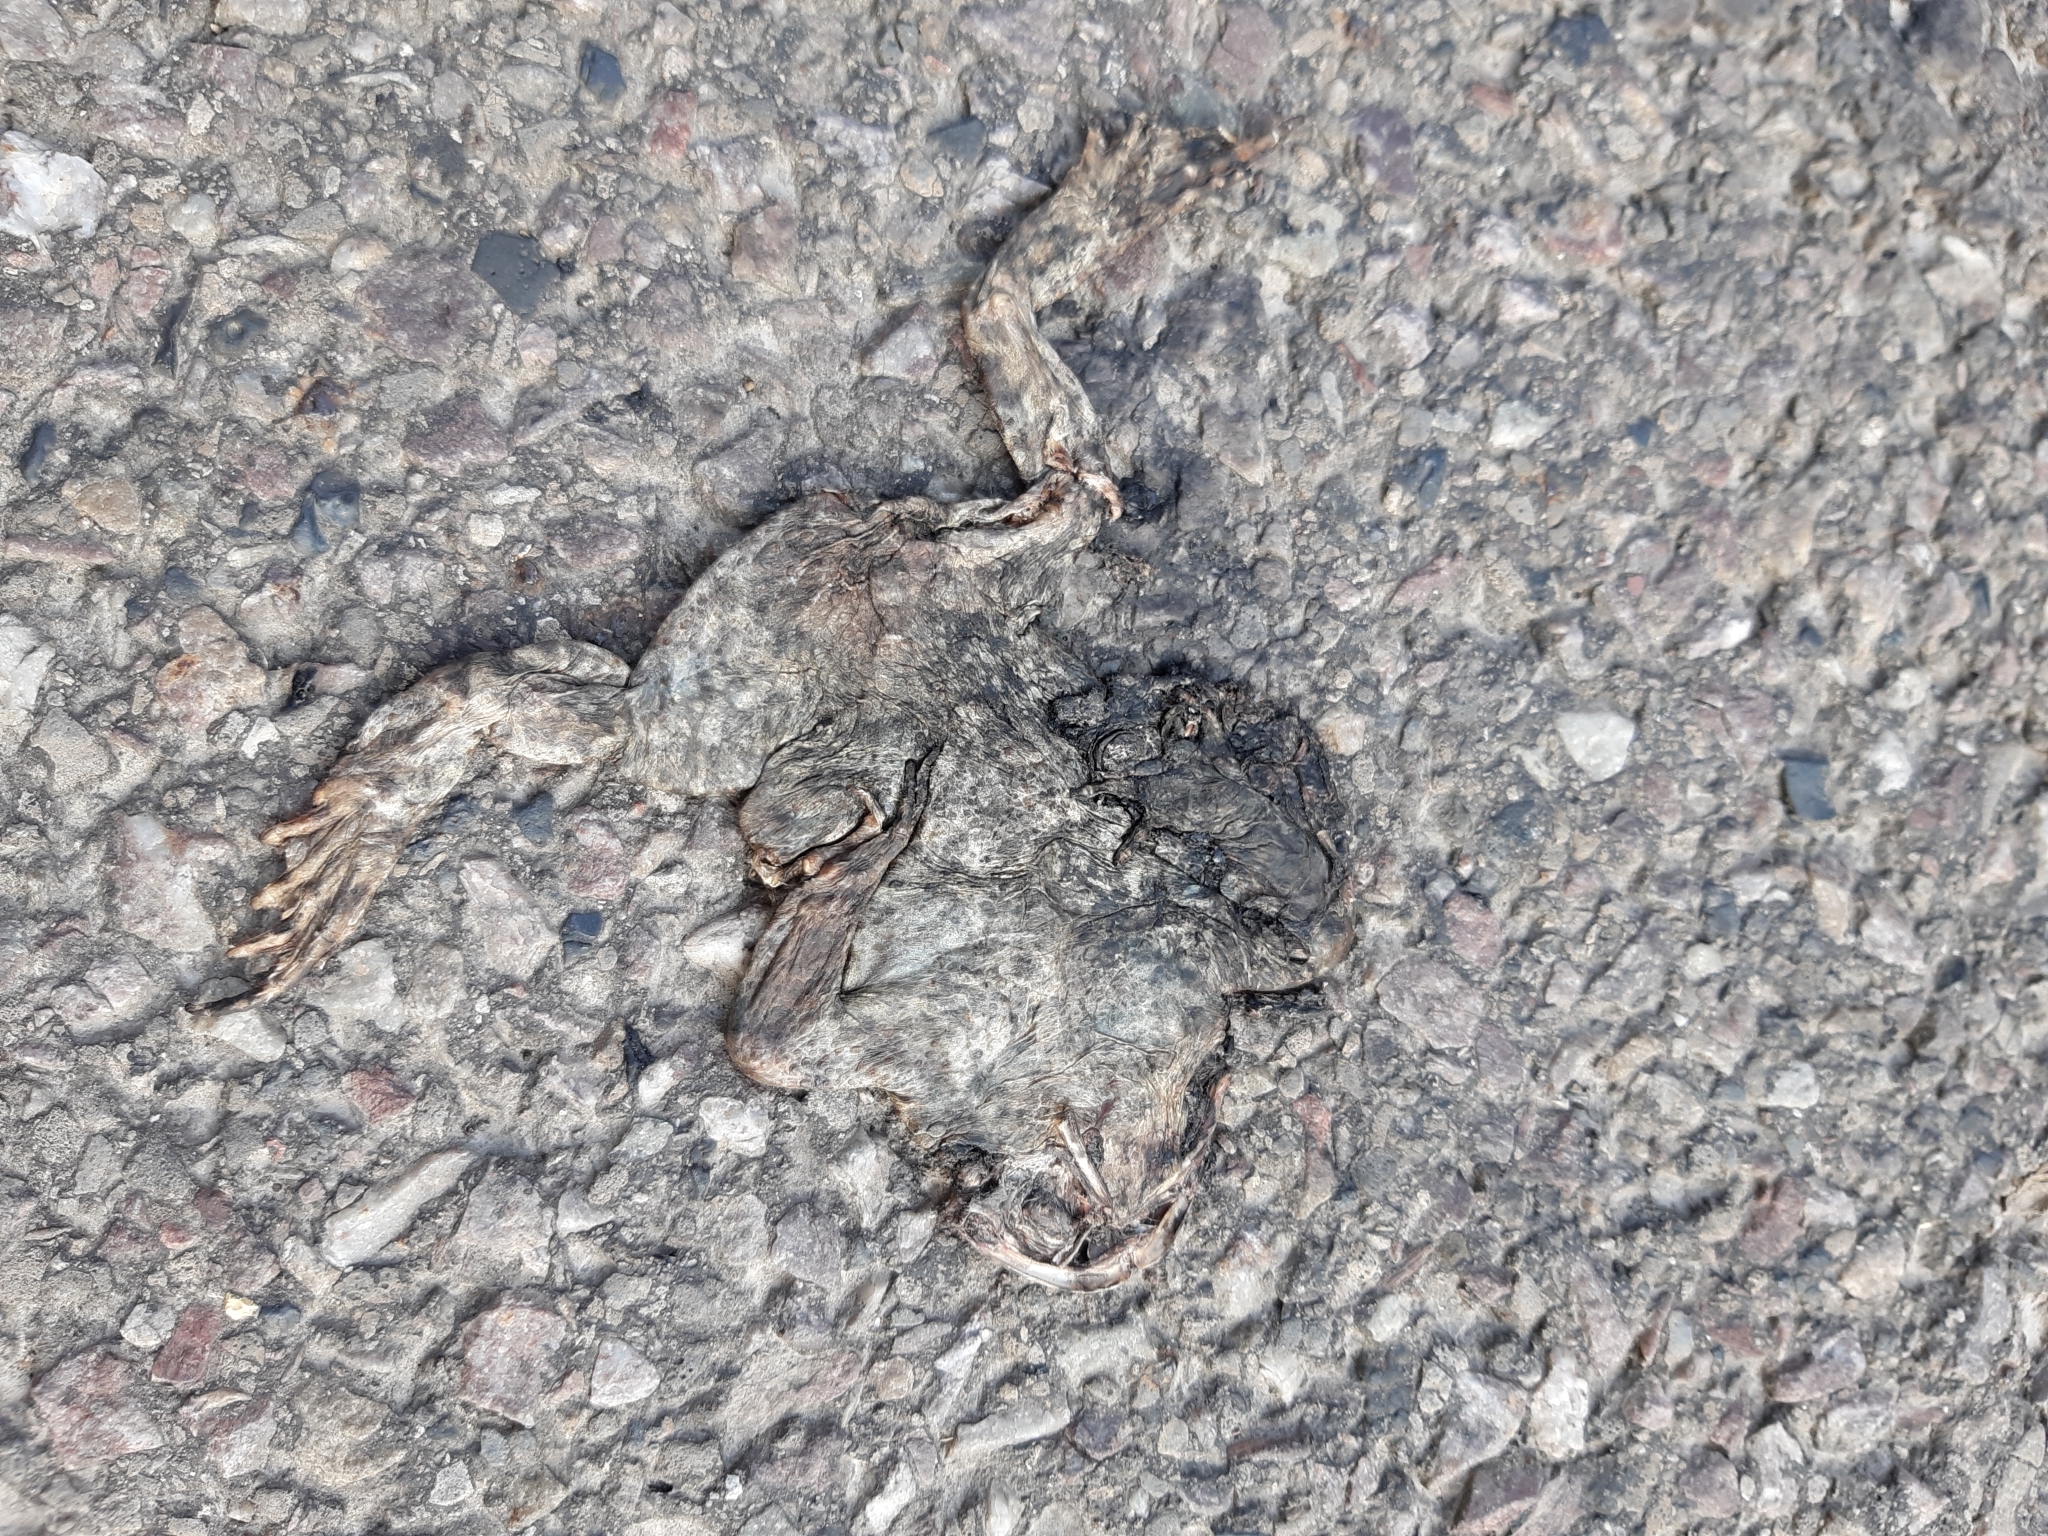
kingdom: Animalia
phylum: Chordata
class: Amphibia
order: Anura
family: Bufonidae
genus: Bufo
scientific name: Bufo bufo
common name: Common toad
